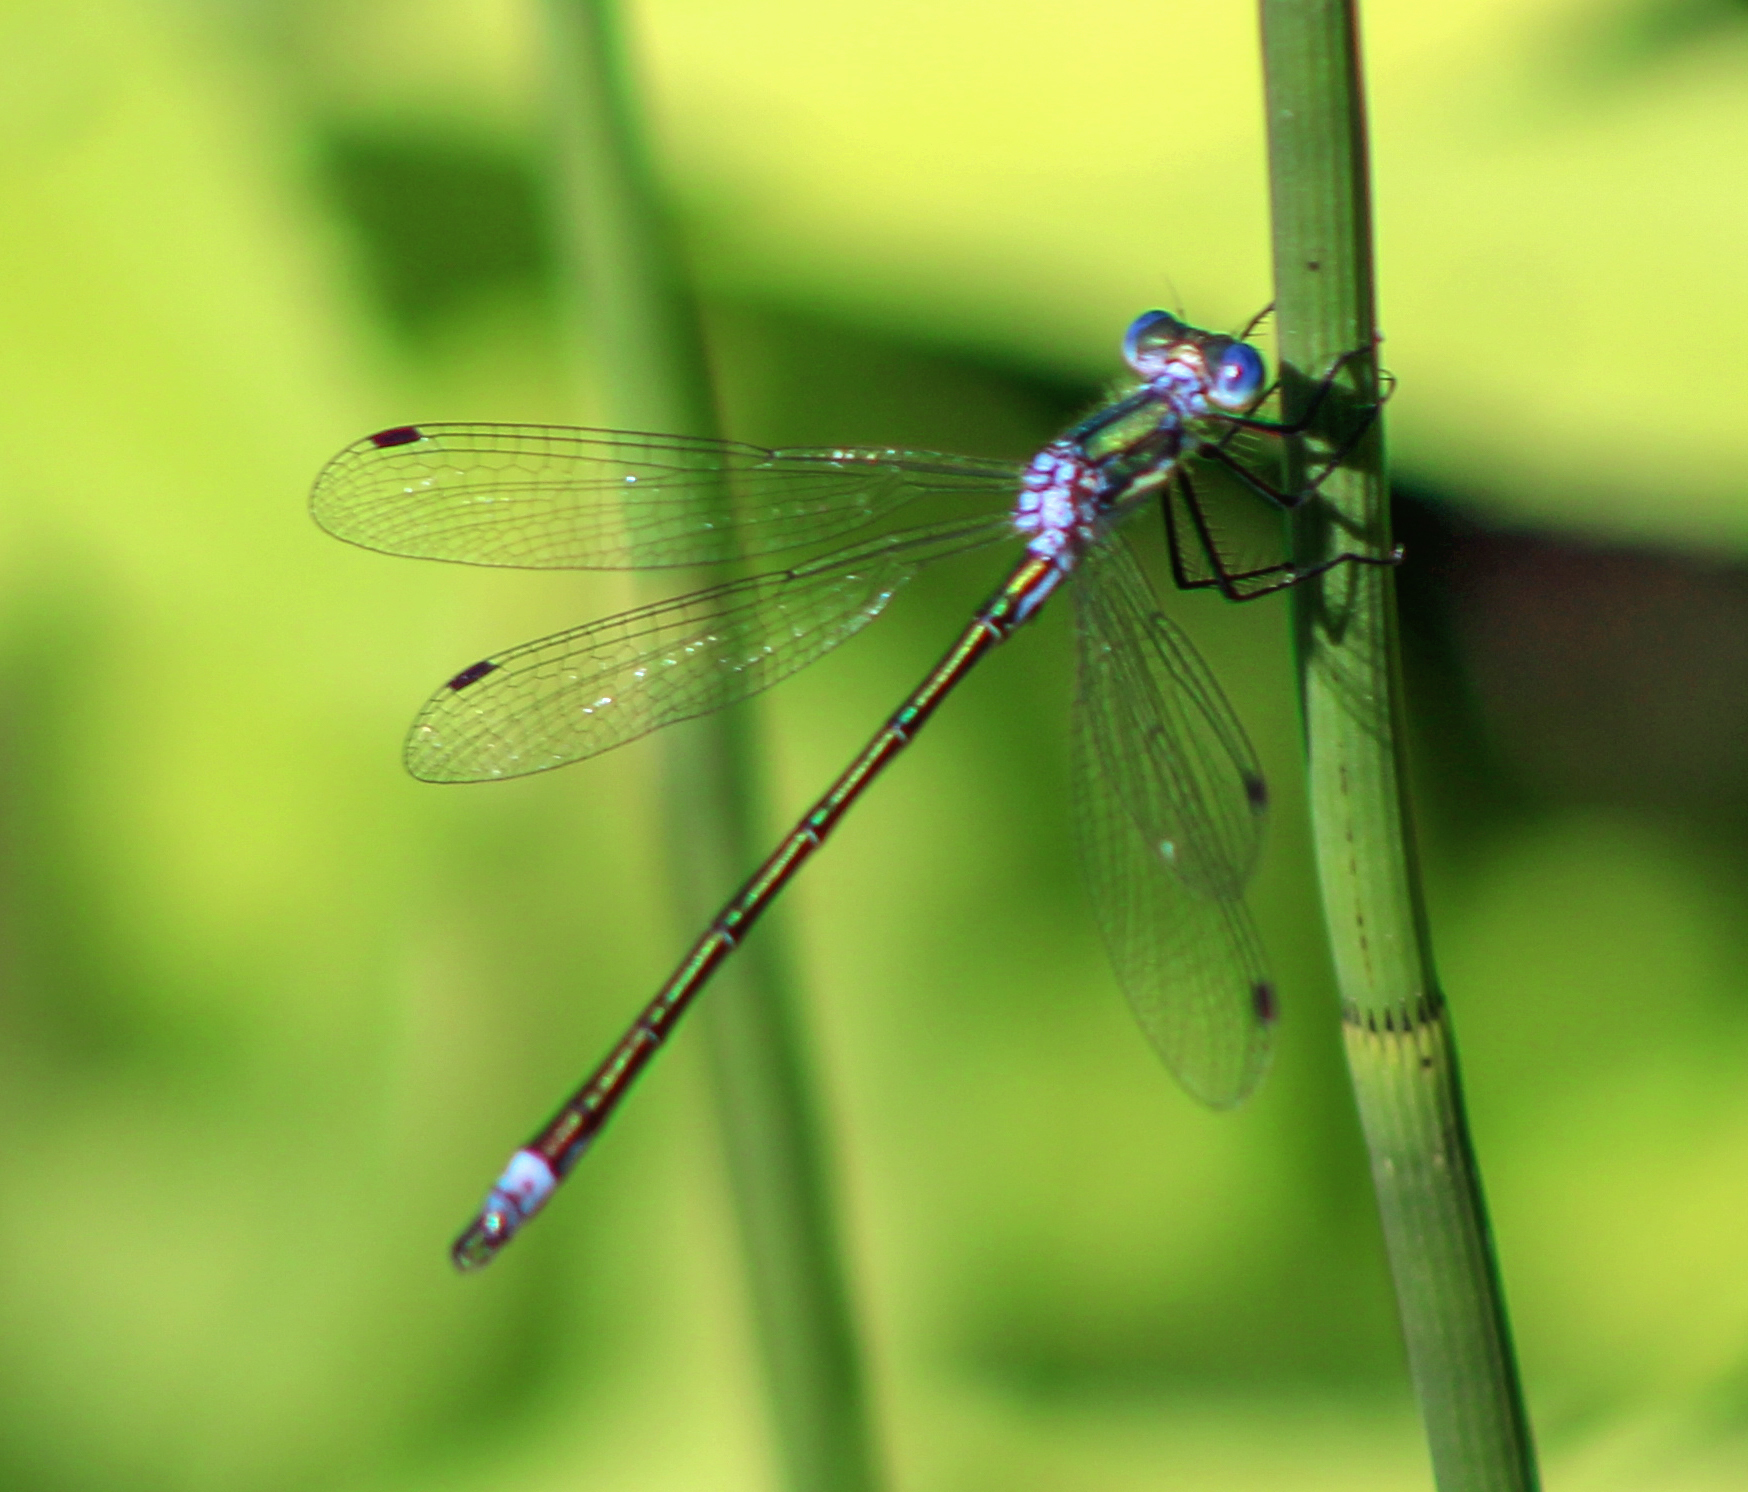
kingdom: Animalia
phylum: Arthropoda
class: Insecta
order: Odonata
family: Lestidae
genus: Lestes
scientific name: Lestes dryas
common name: Scarce emerald damselfly
